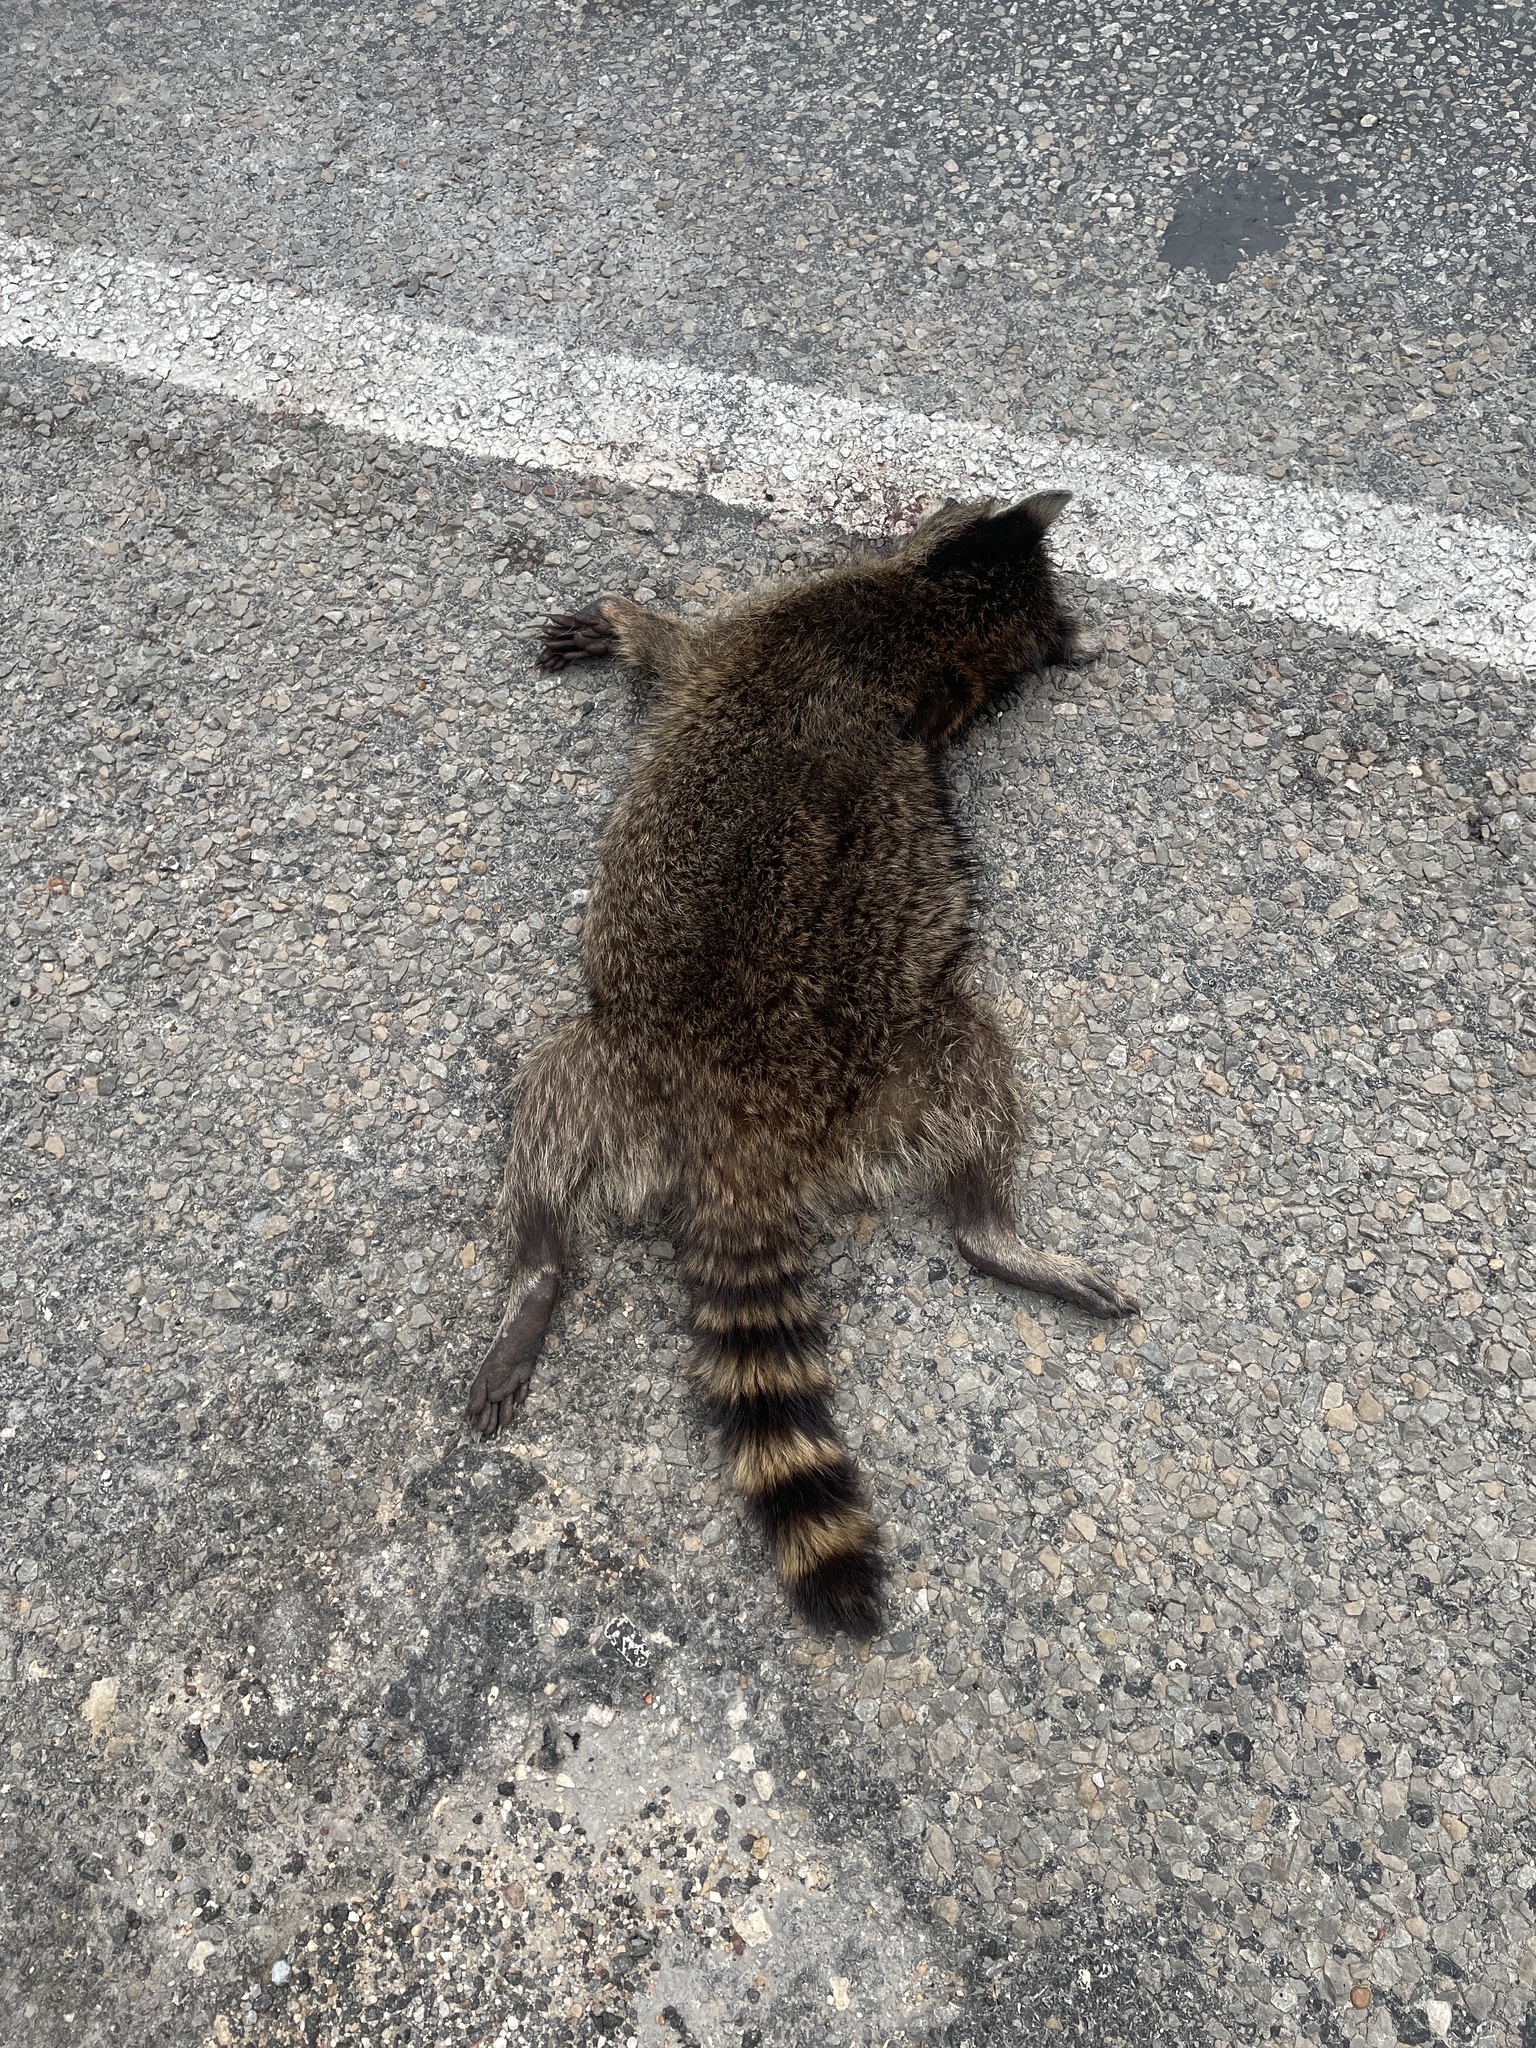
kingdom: Animalia
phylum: Chordata
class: Mammalia
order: Carnivora
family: Procyonidae
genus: Procyon
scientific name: Procyon lotor
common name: Raccoon
